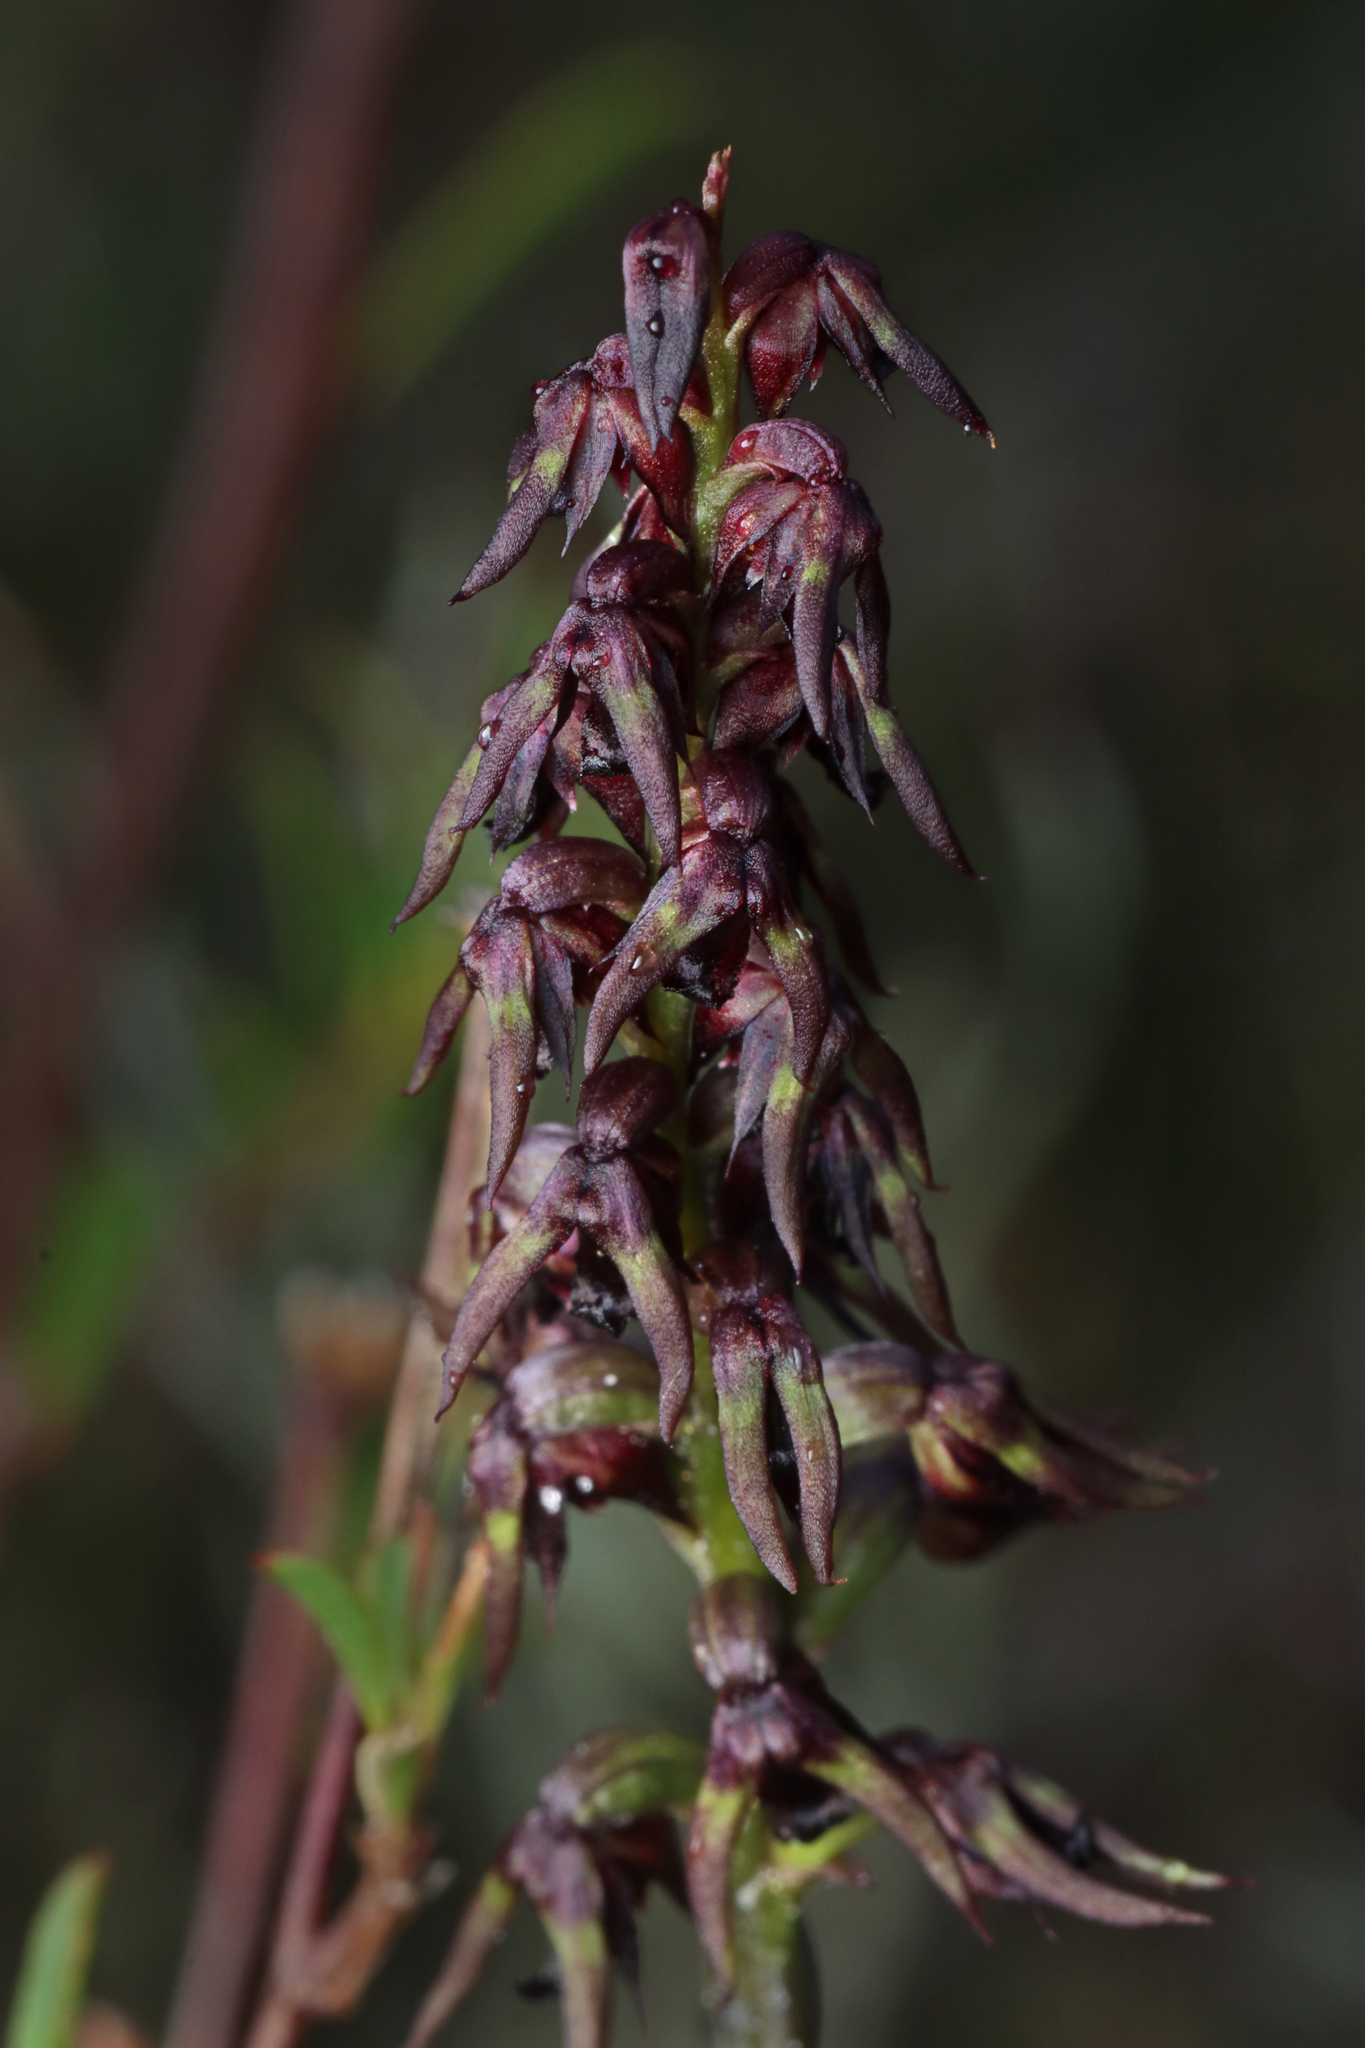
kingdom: Plantae
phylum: Tracheophyta
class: Liliopsida
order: Asparagales
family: Orchidaceae
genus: Genoplesium
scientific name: Genoplesium rufum
